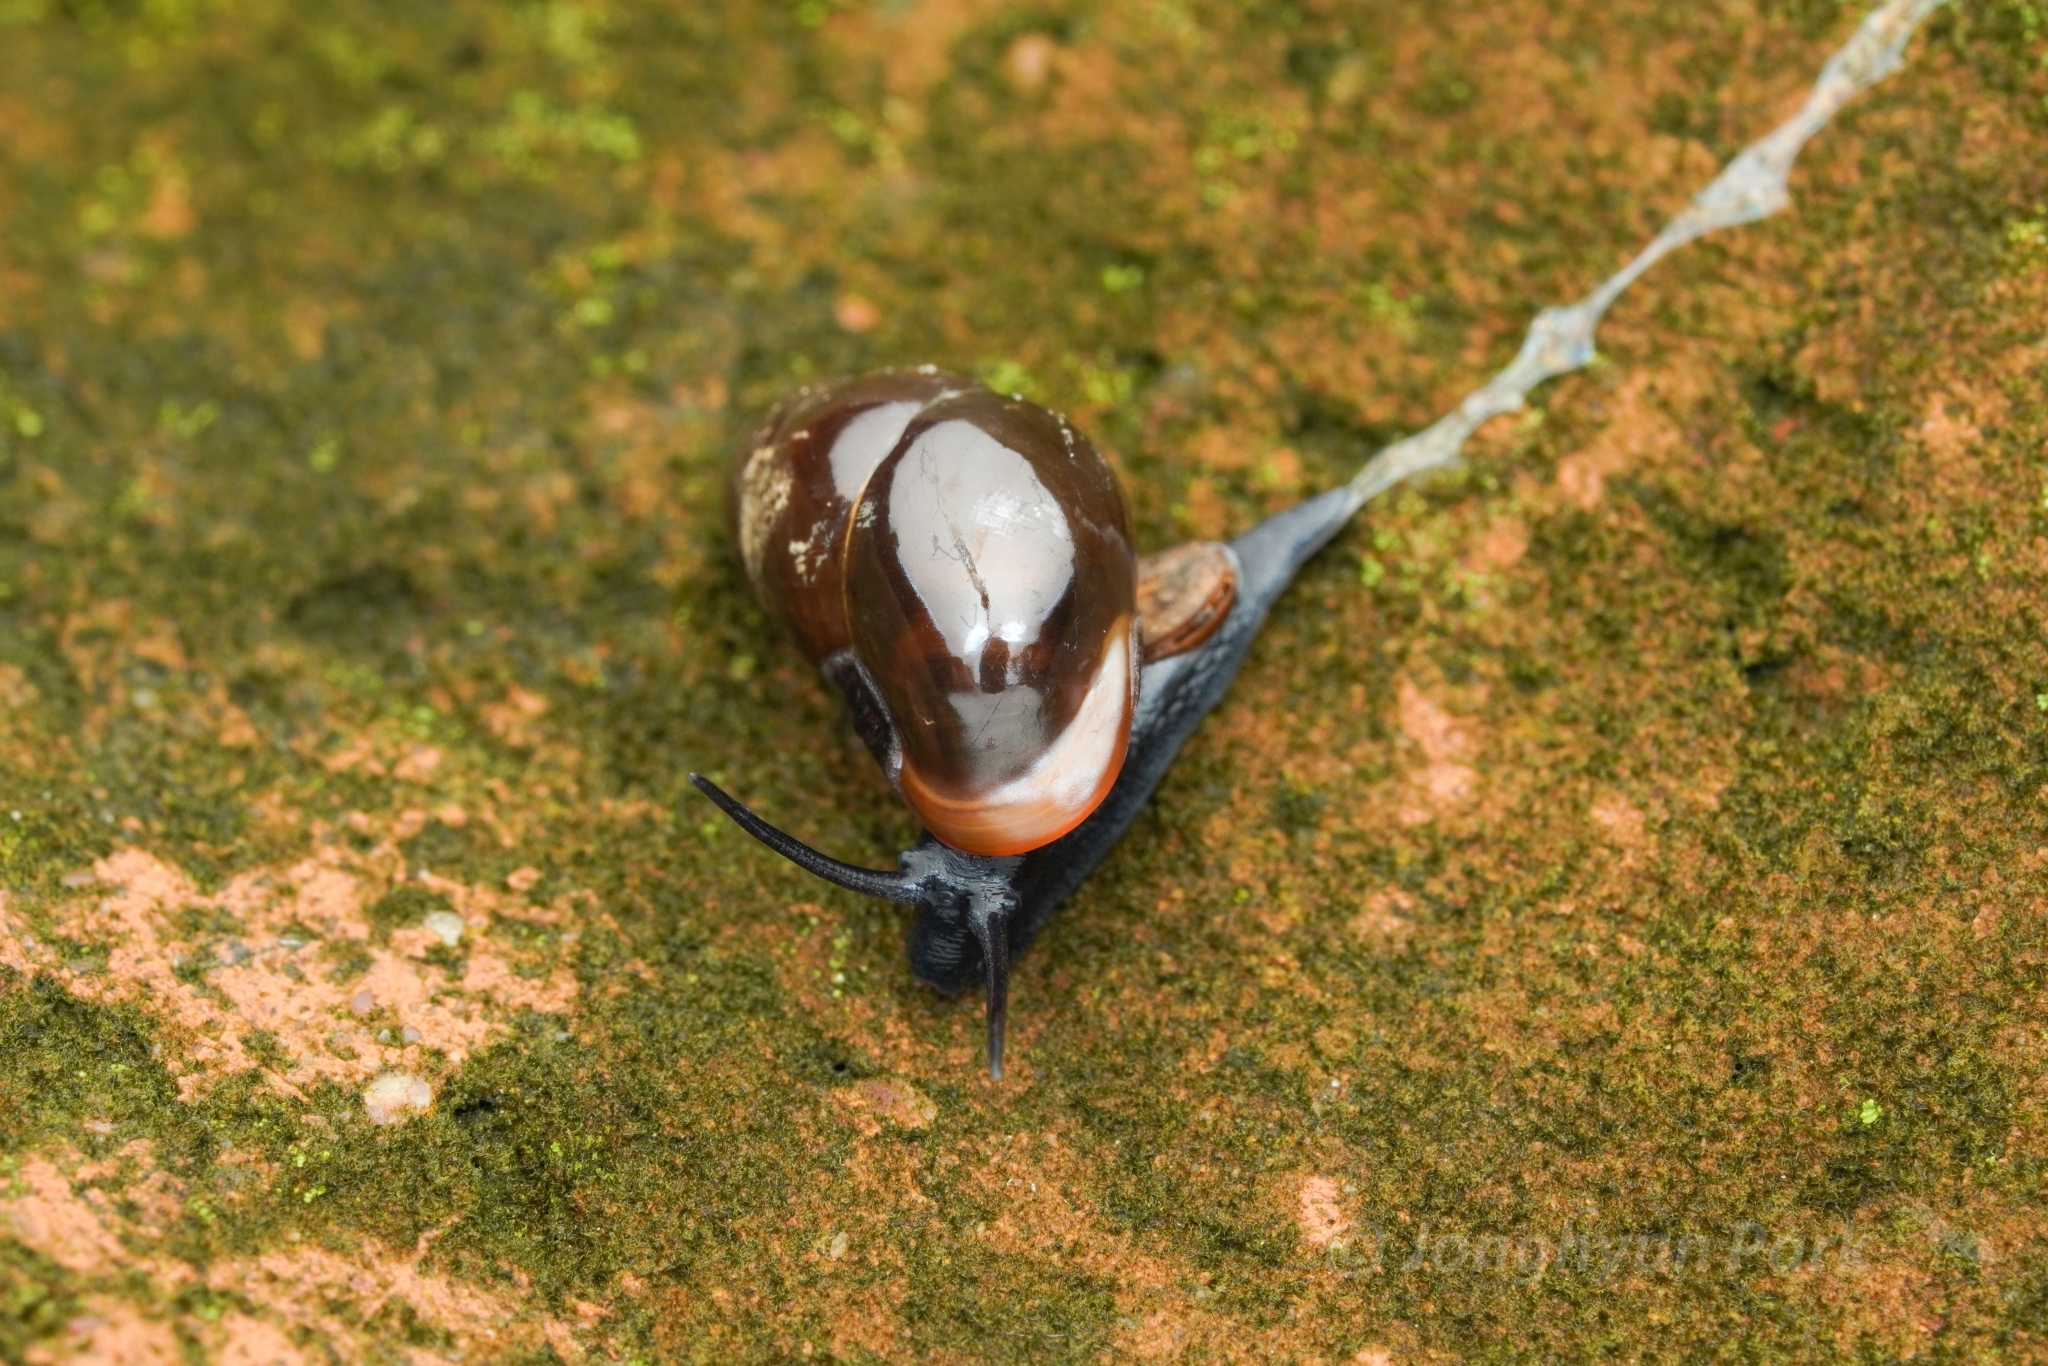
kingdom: Animalia
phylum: Mollusca
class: Gastropoda
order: Architaenioglossa
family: Pupinidae
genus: Pupina
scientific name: Pupina artata
